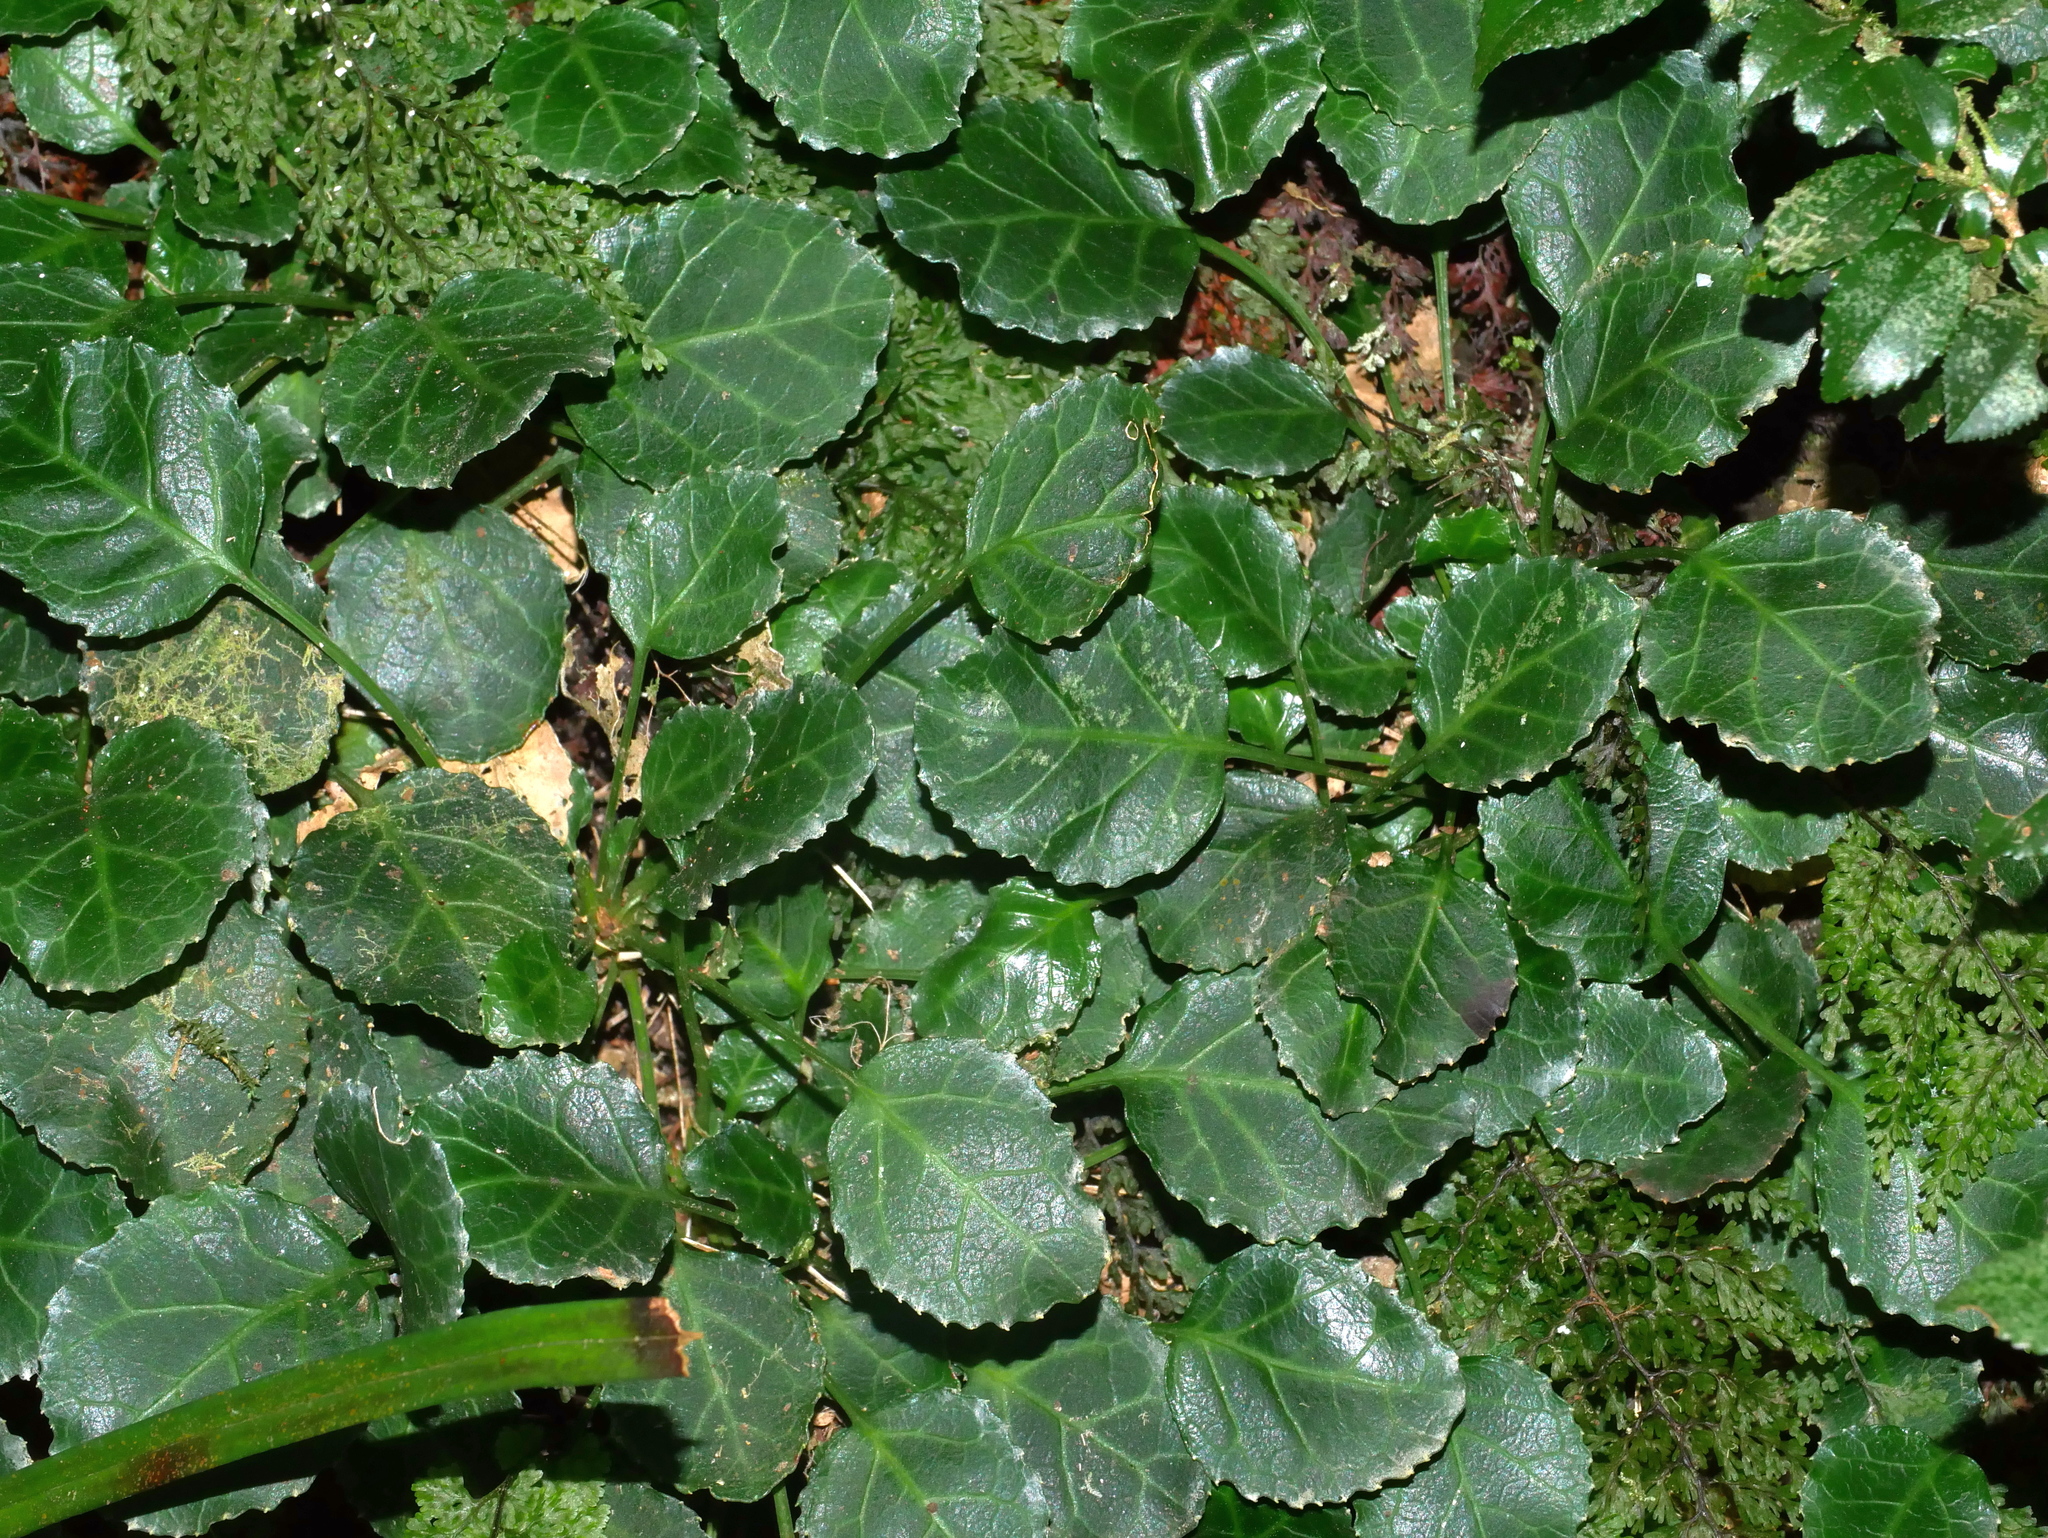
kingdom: Plantae
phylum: Tracheophyta
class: Magnoliopsida
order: Ericales
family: Diapensiaceae
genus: Shortia
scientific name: Shortia rotundifolia
